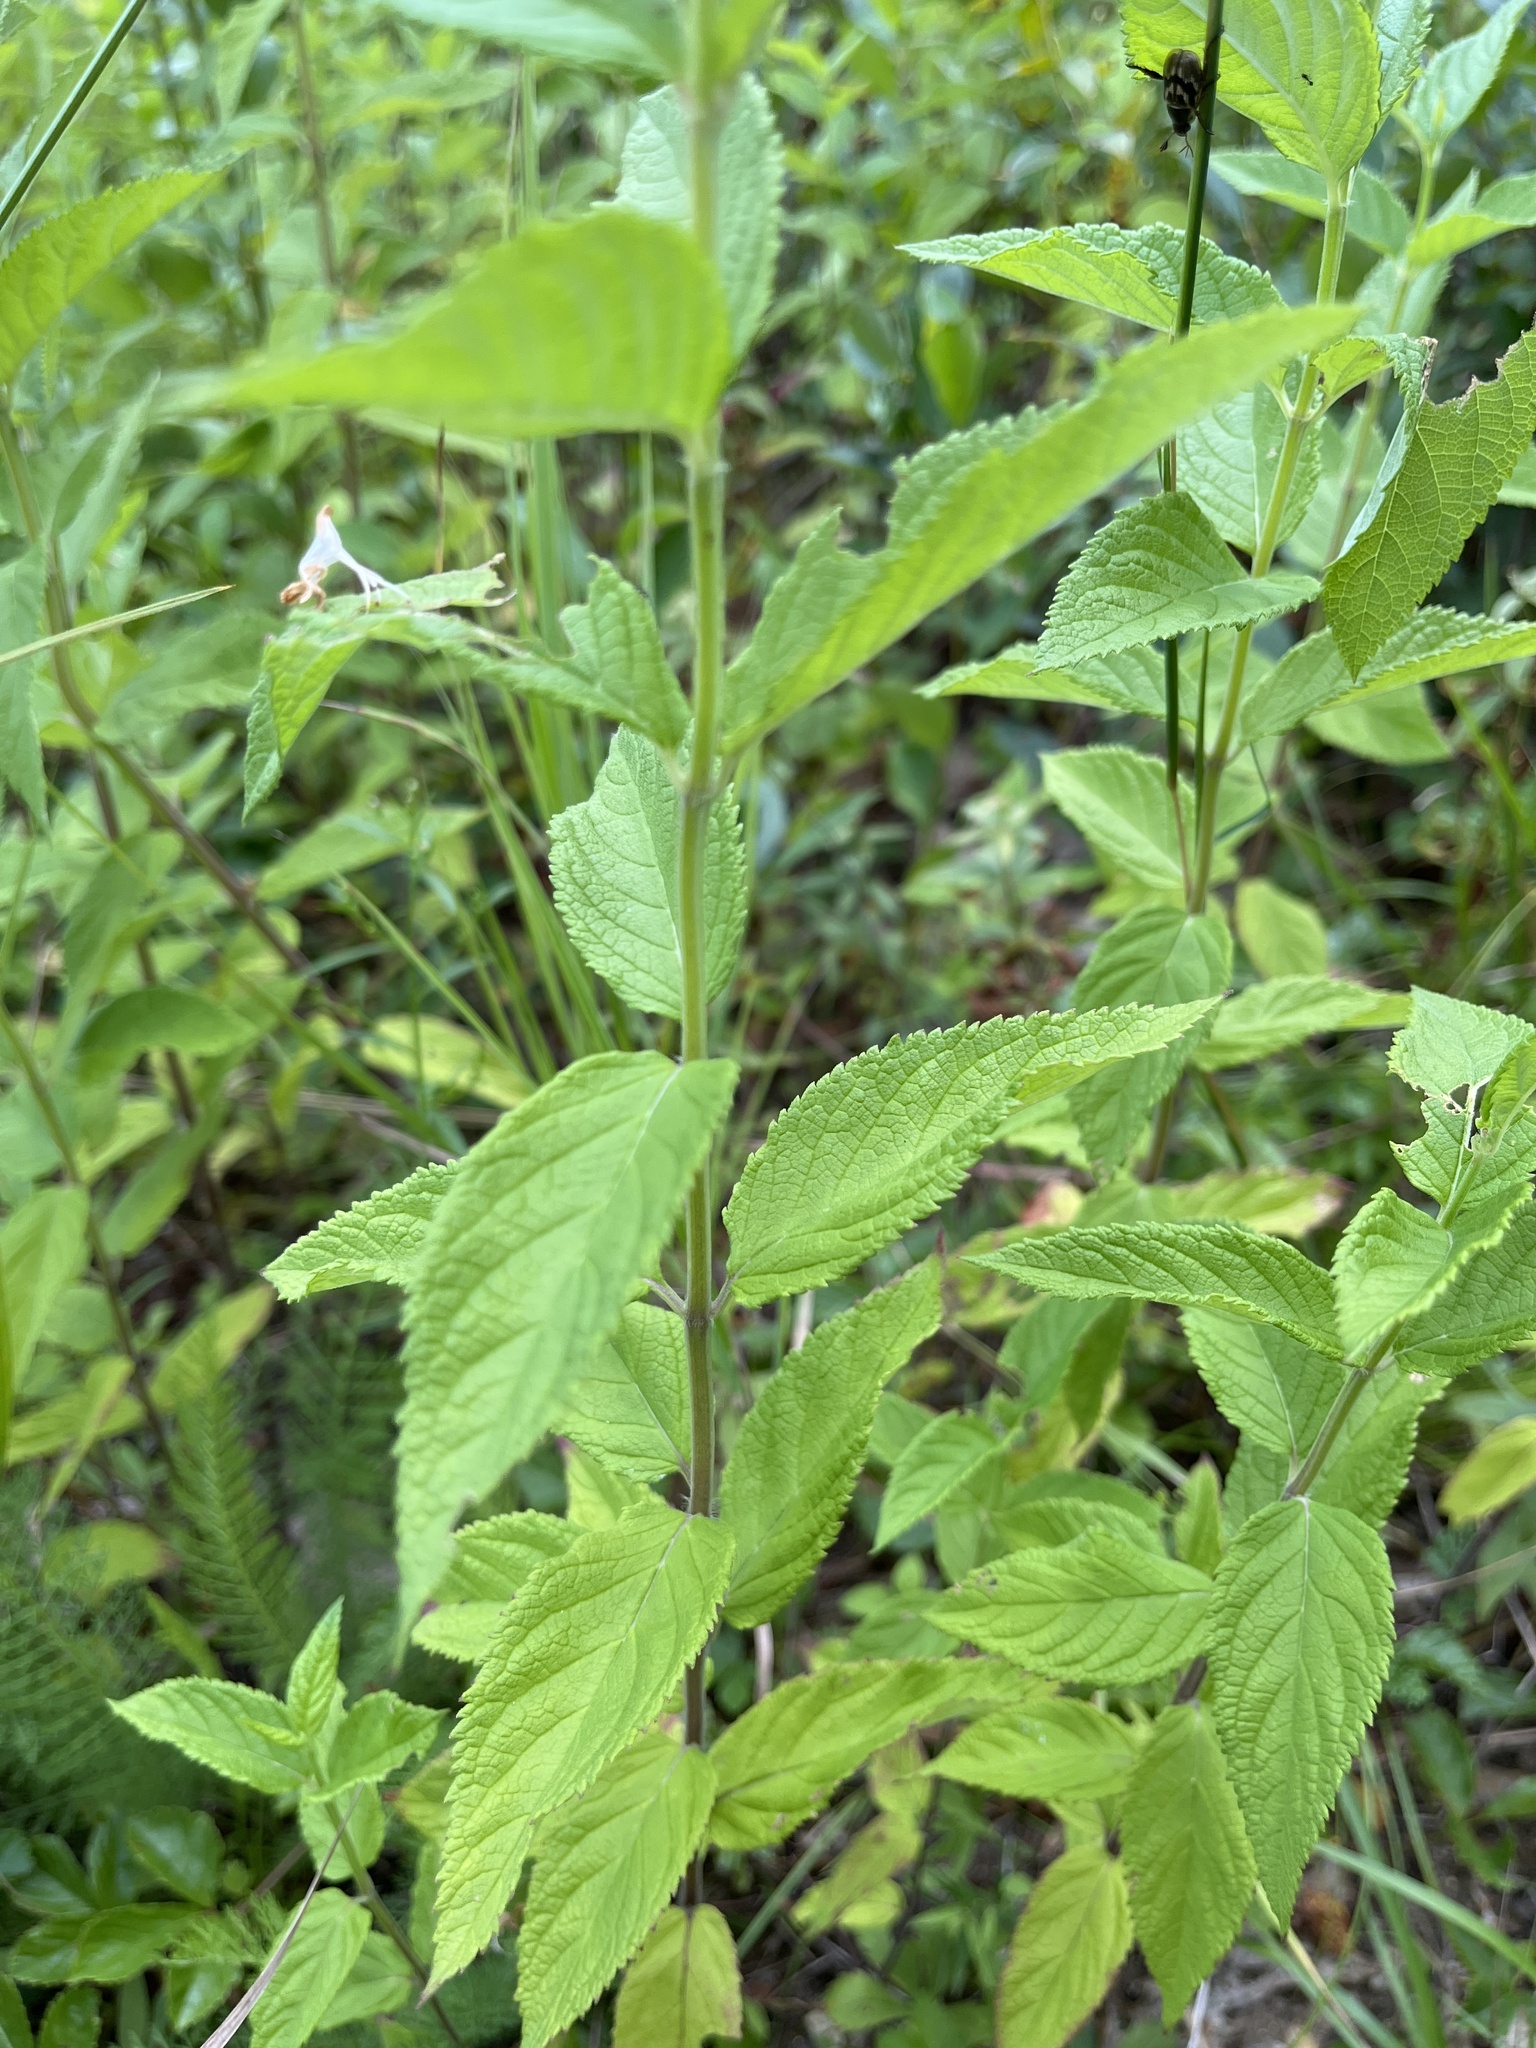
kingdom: Plantae
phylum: Tracheophyta
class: Magnoliopsida
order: Lamiales
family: Lamiaceae
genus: Teucrium
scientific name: Teucrium canadense
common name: American germander
